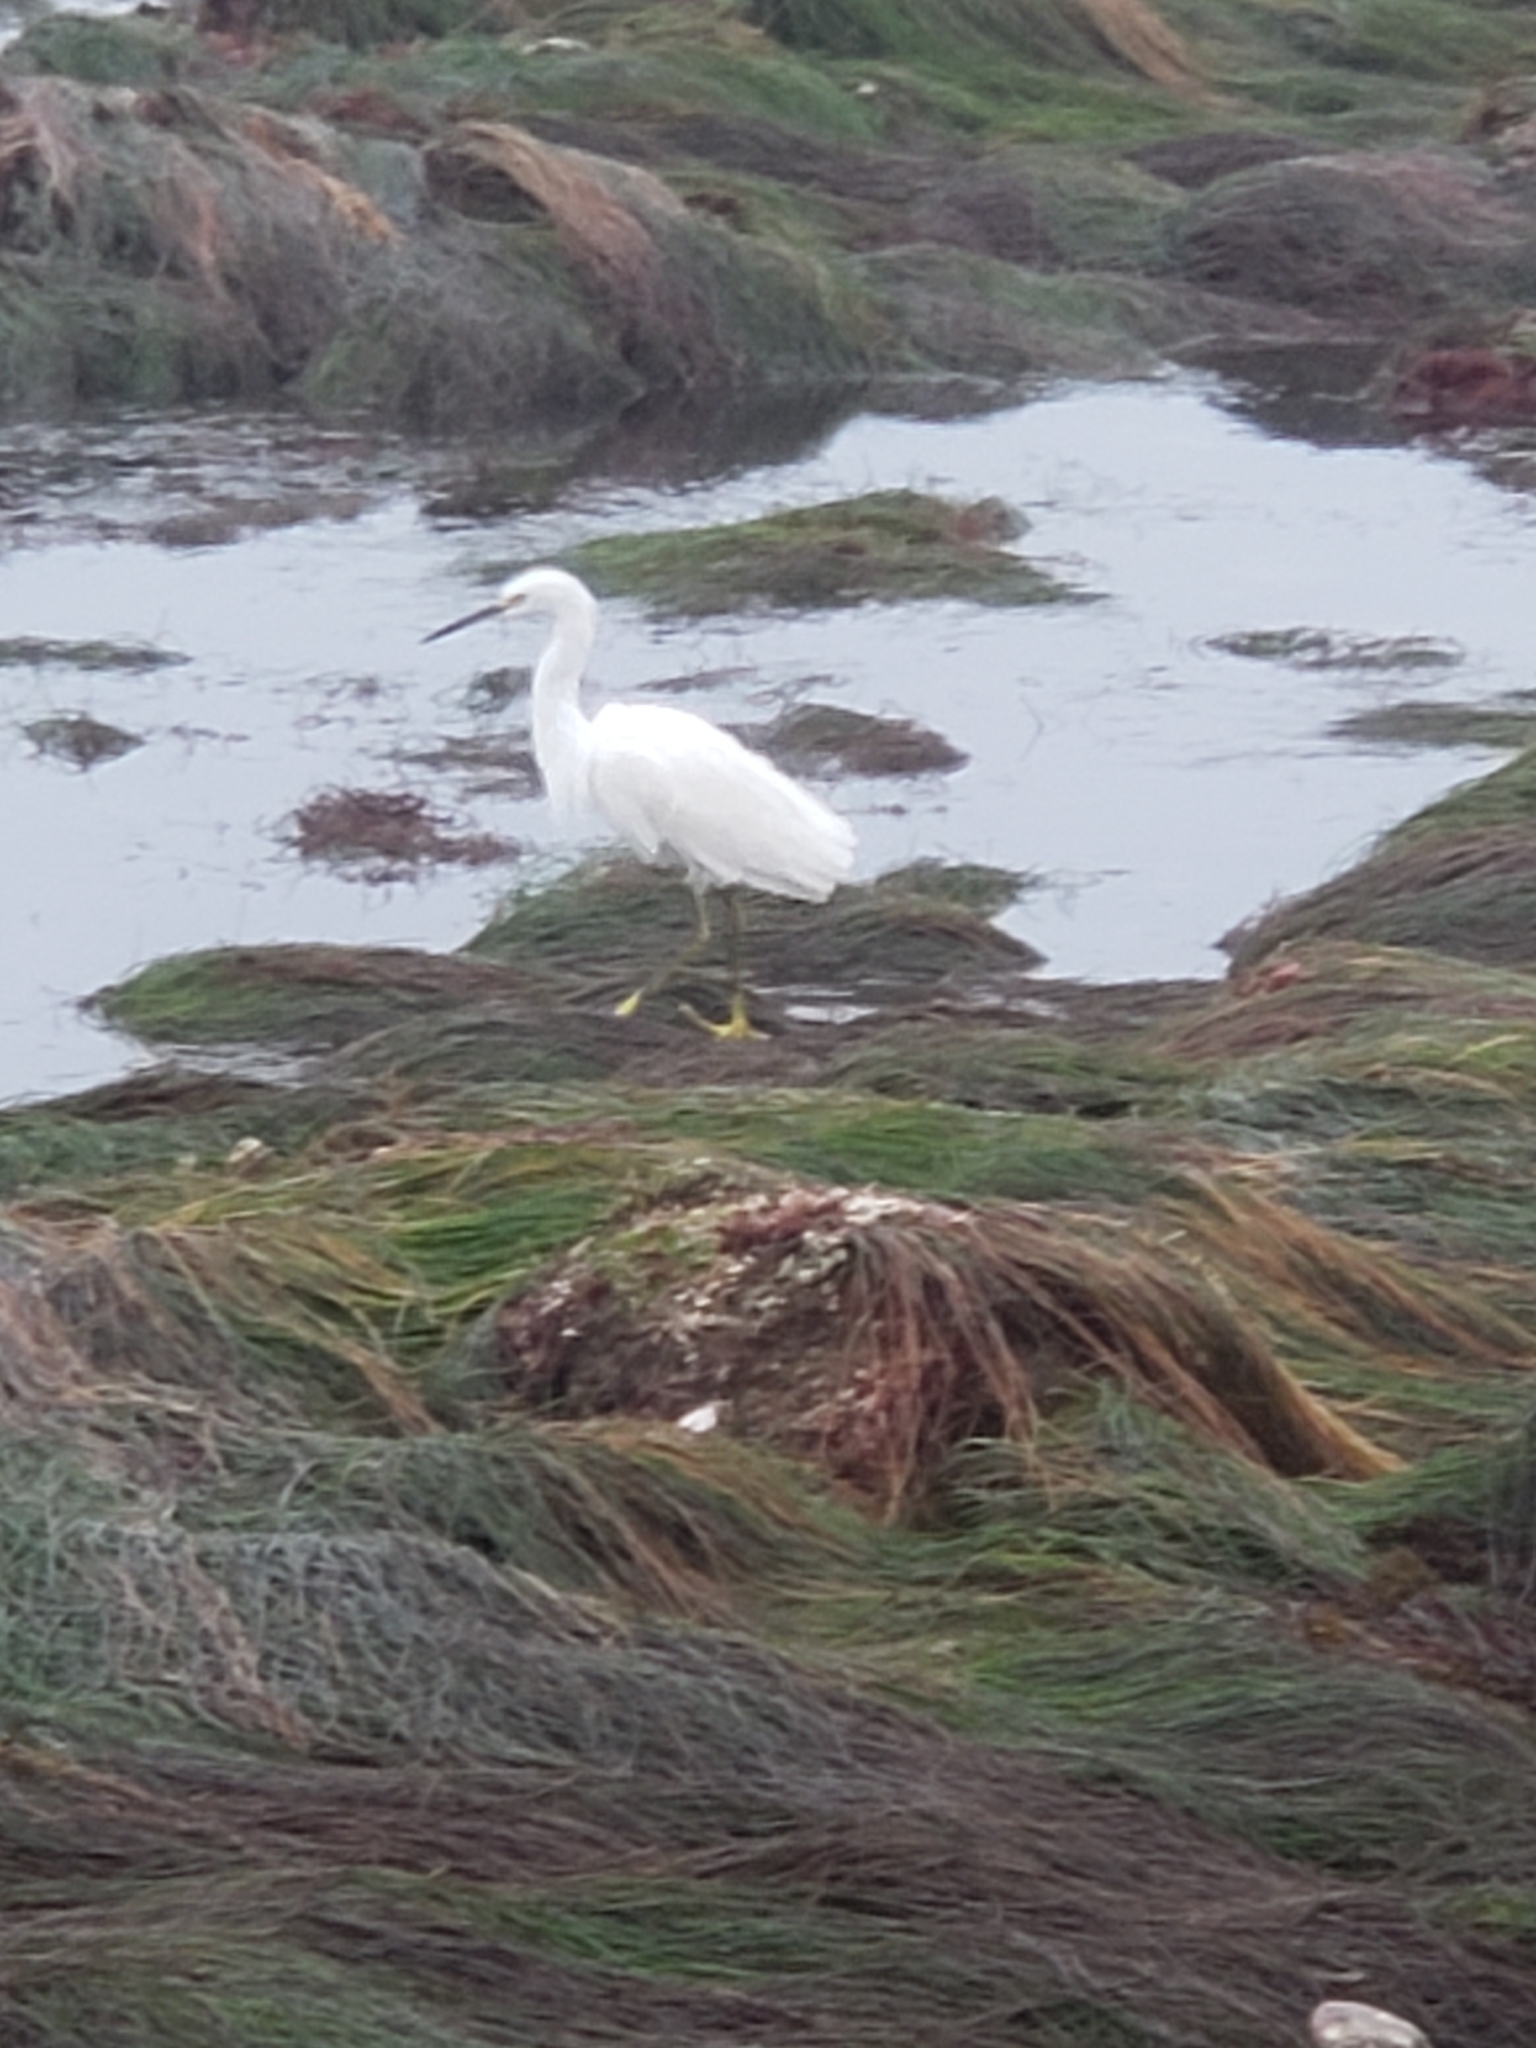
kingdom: Animalia
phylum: Chordata
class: Aves
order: Pelecaniformes
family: Ardeidae
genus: Egretta
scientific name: Egretta thula
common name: Snowy egret
